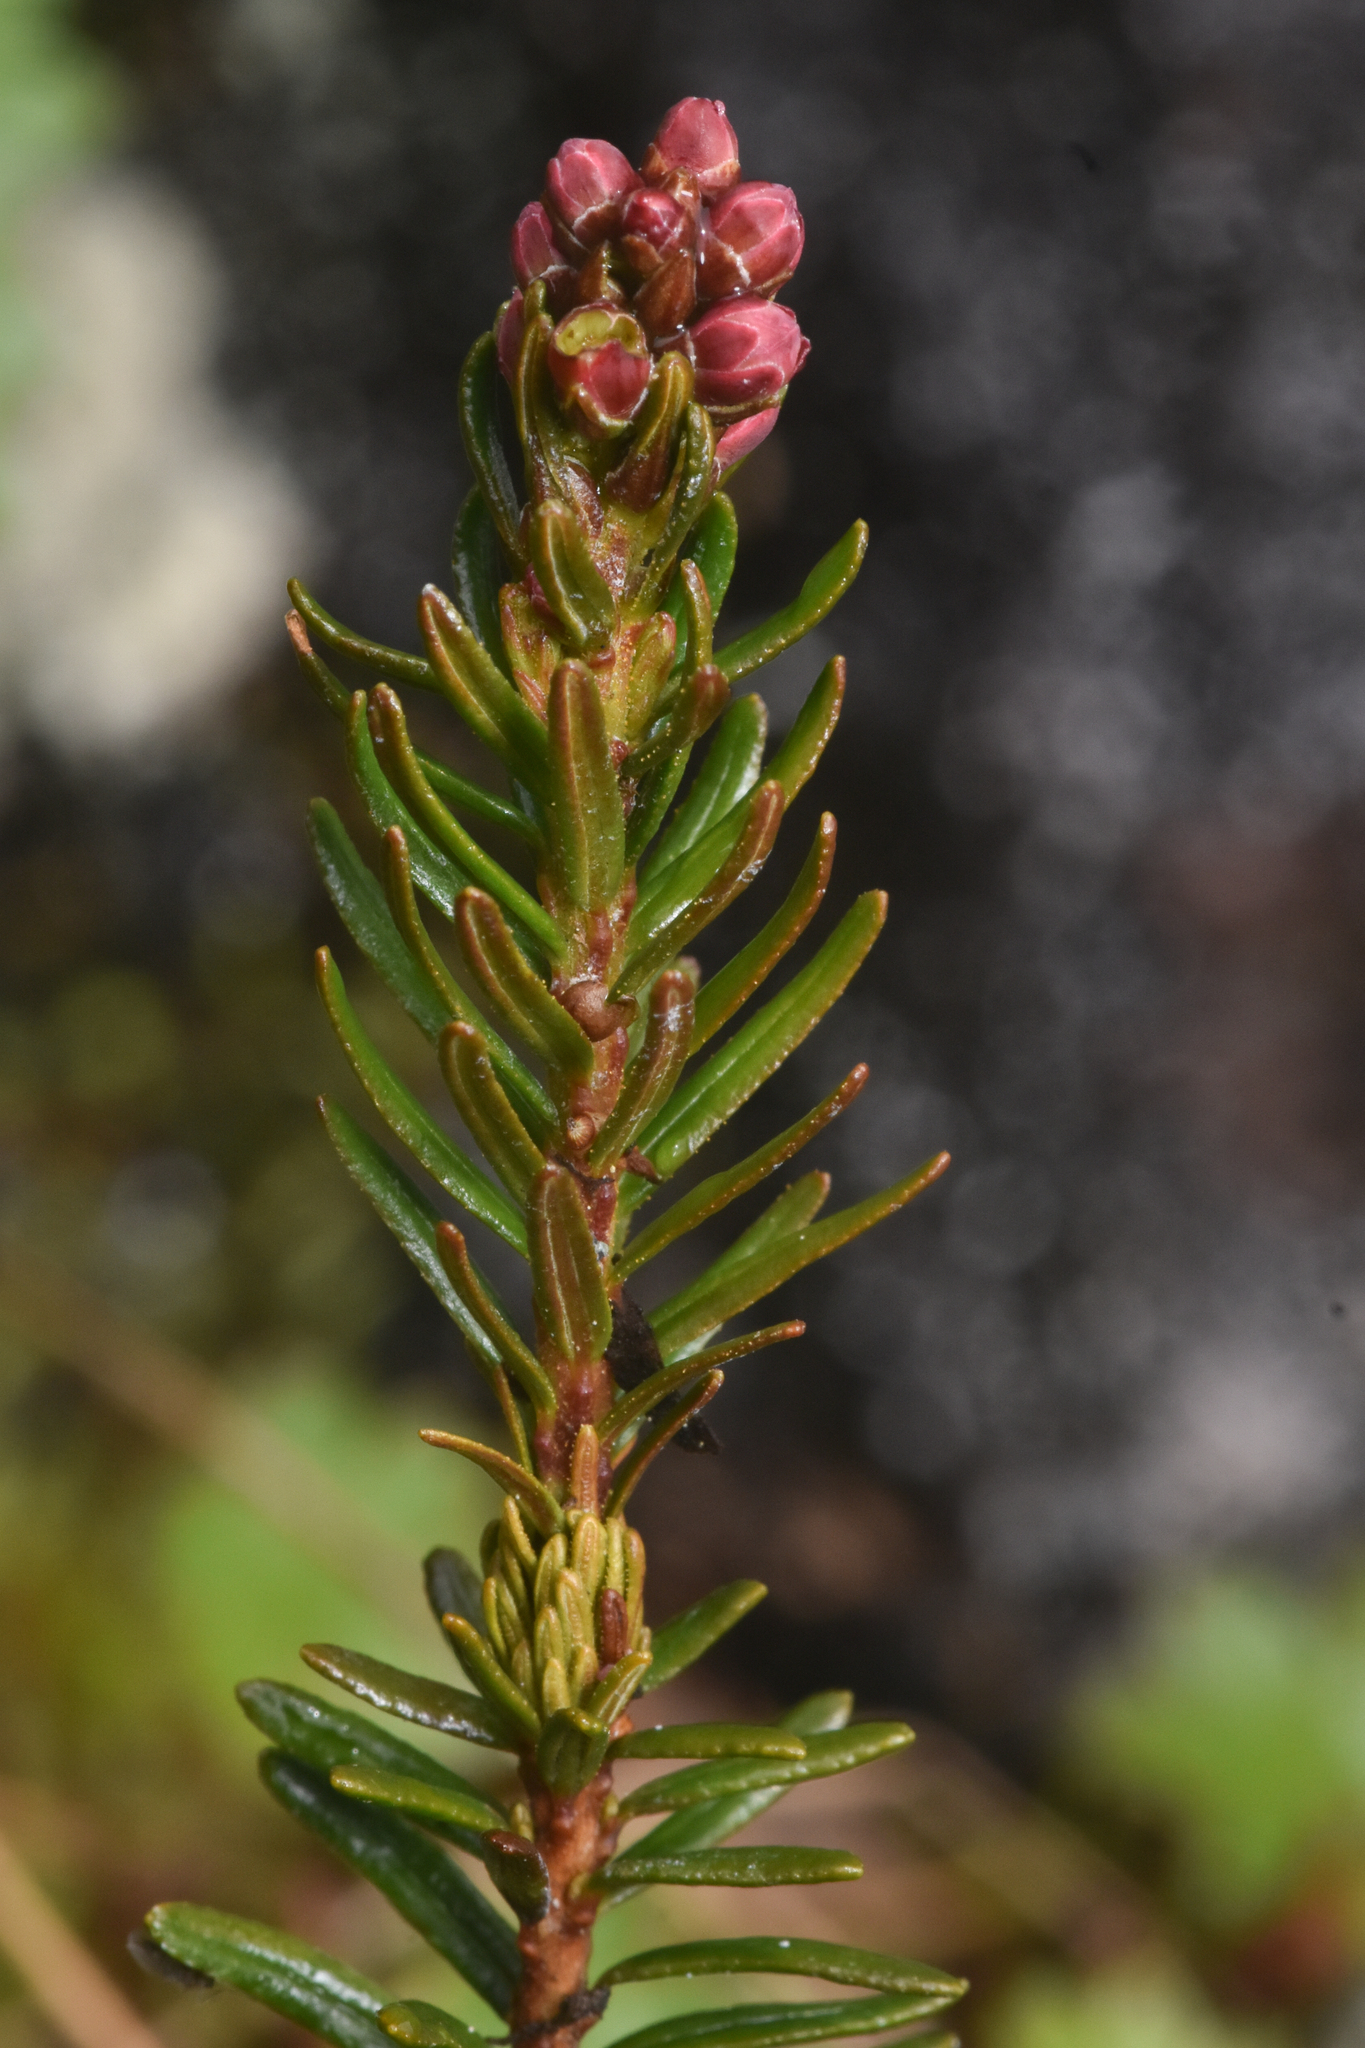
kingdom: Plantae
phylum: Tracheophyta
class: Magnoliopsida
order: Ericales
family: Ericaceae
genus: Phyllodoce
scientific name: Phyllodoce empetriformis
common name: Pink mountain heather
